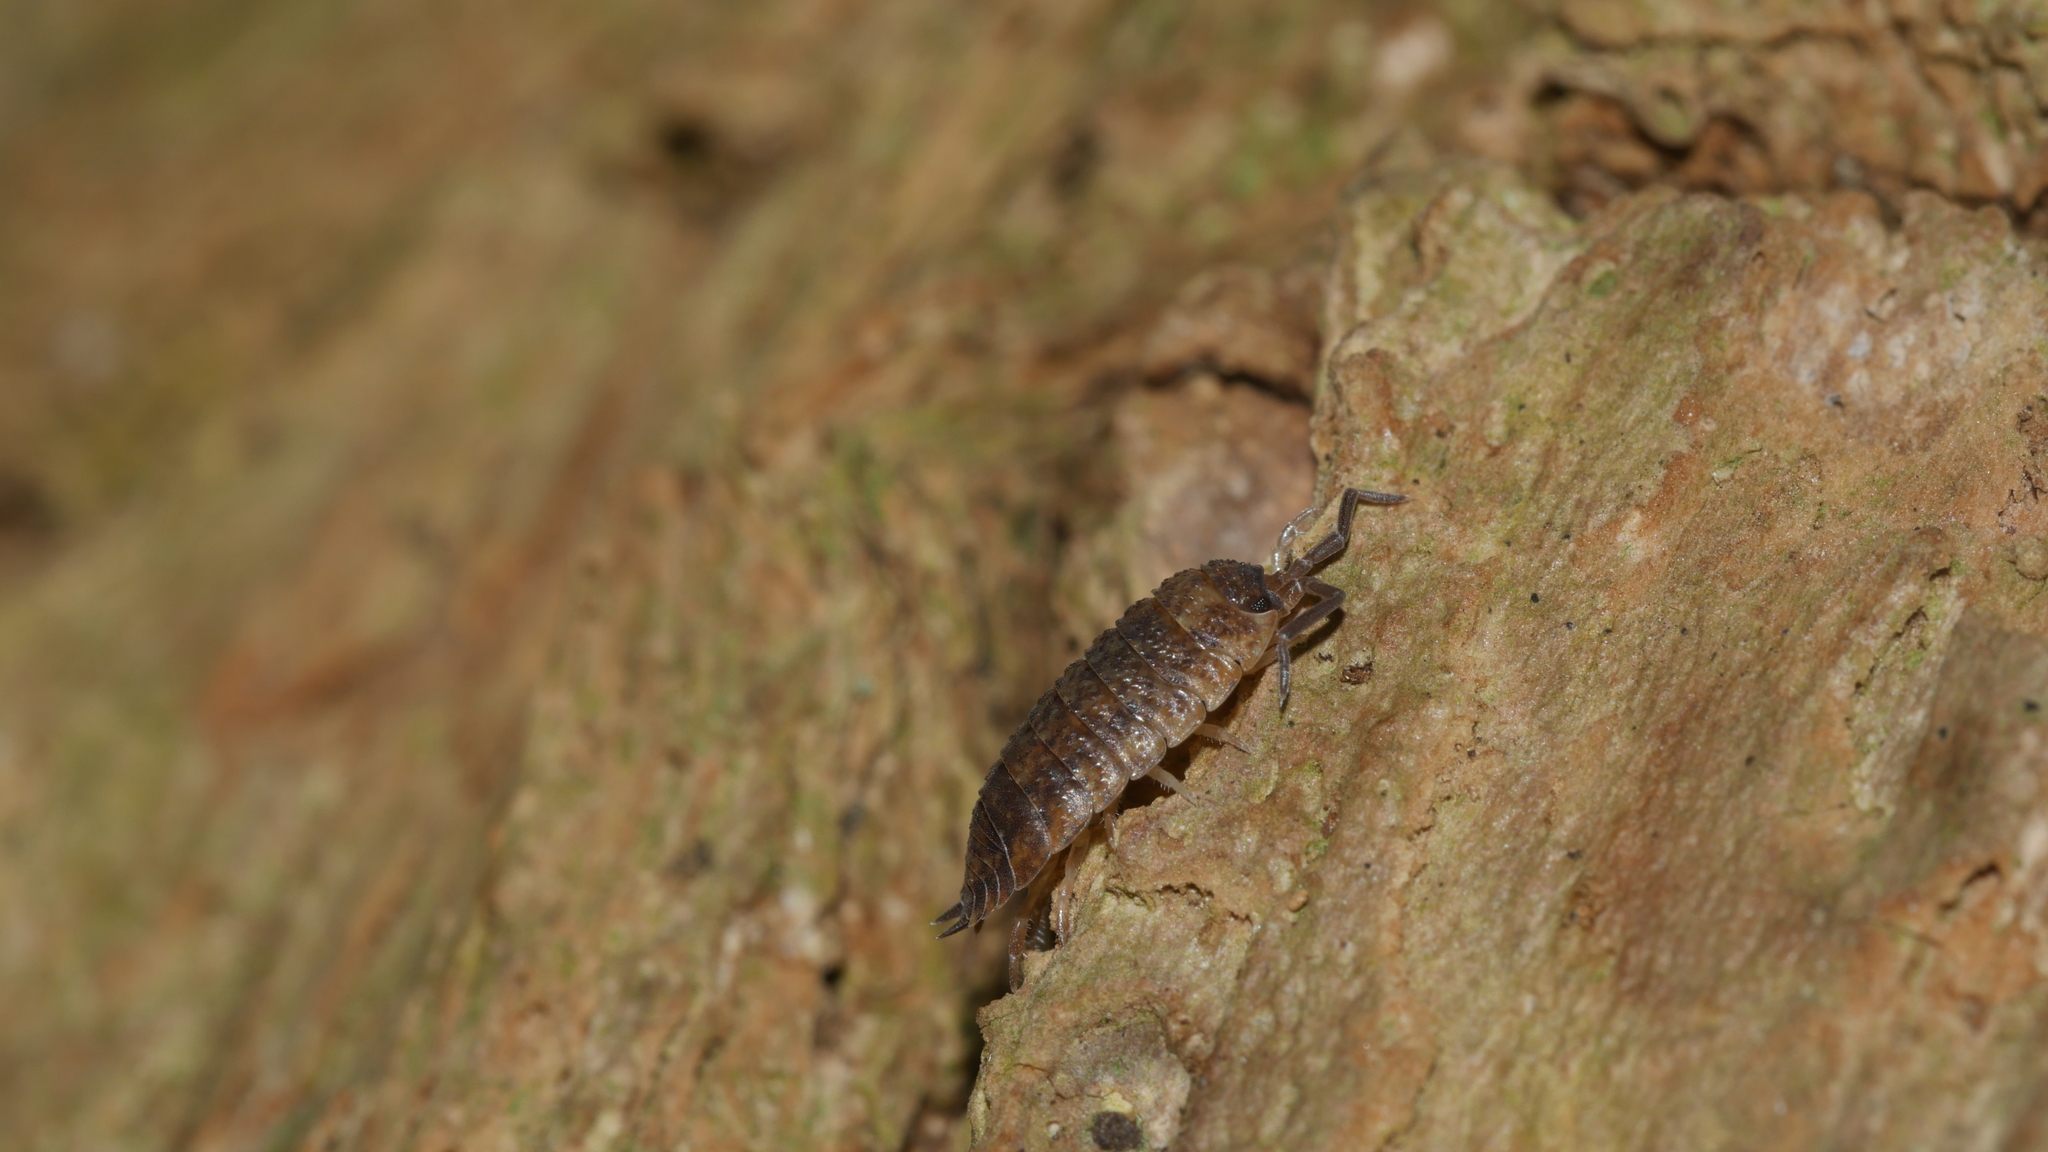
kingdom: Animalia
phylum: Arthropoda
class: Malacostraca
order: Isopoda
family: Porcellionidae
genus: Porcellio
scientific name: Porcellio scaber
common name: Common rough woodlouse
